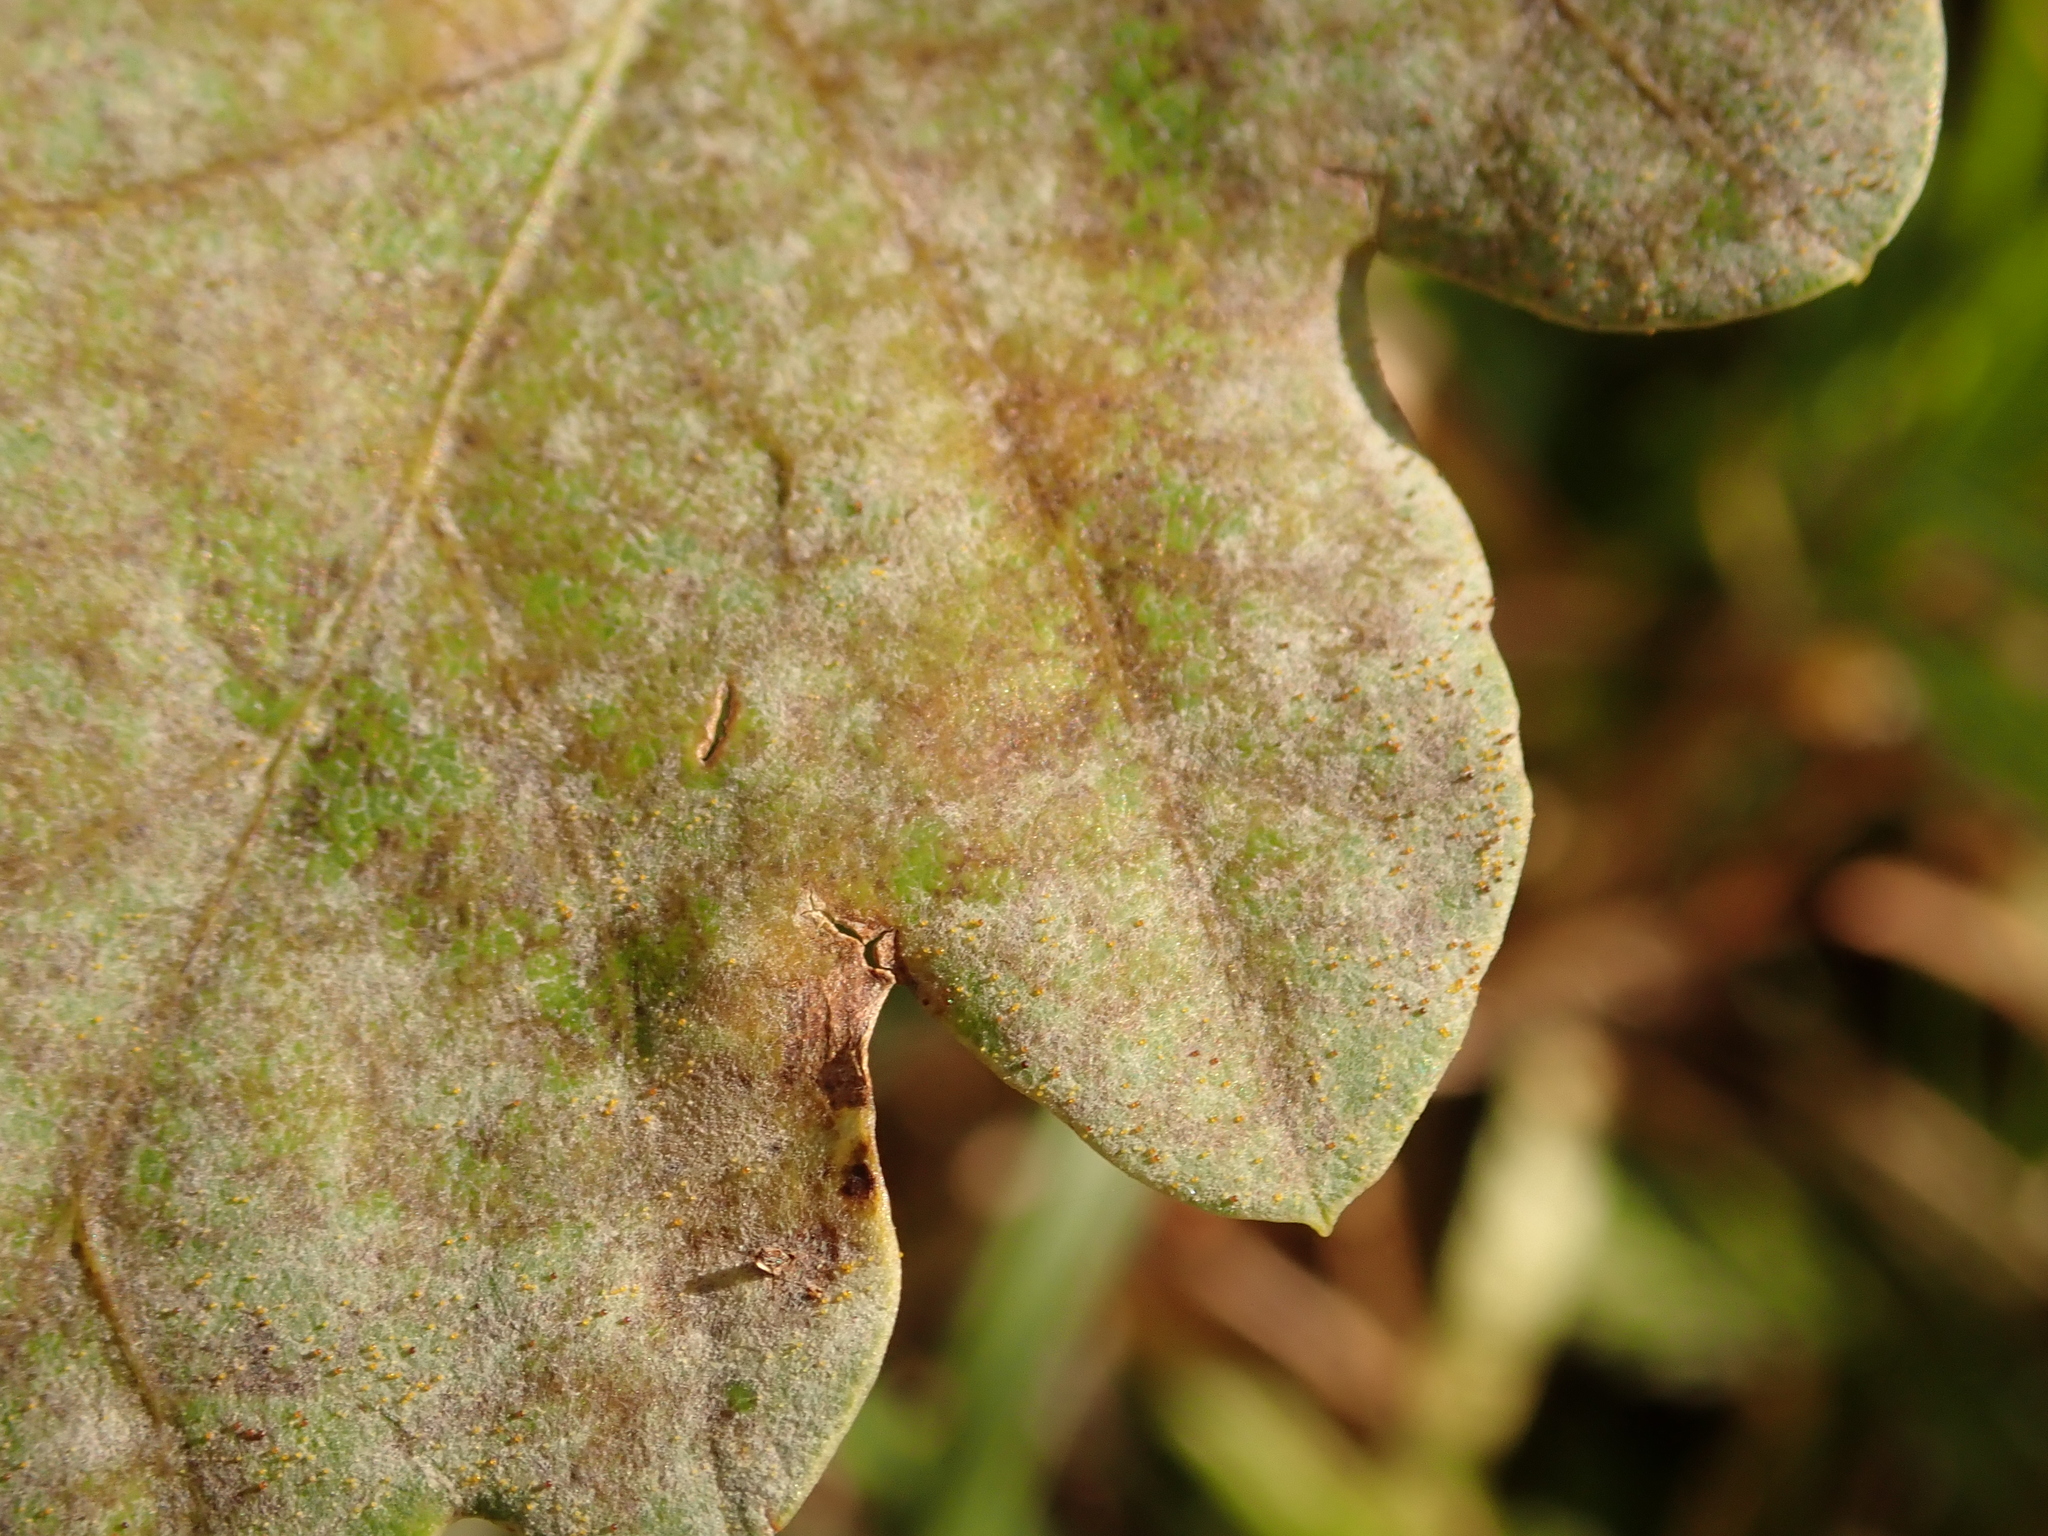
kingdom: Fungi
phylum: Ascomycota
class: Leotiomycetes
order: Helotiales
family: Erysiphaceae
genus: Erysiphe
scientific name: Erysiphe
